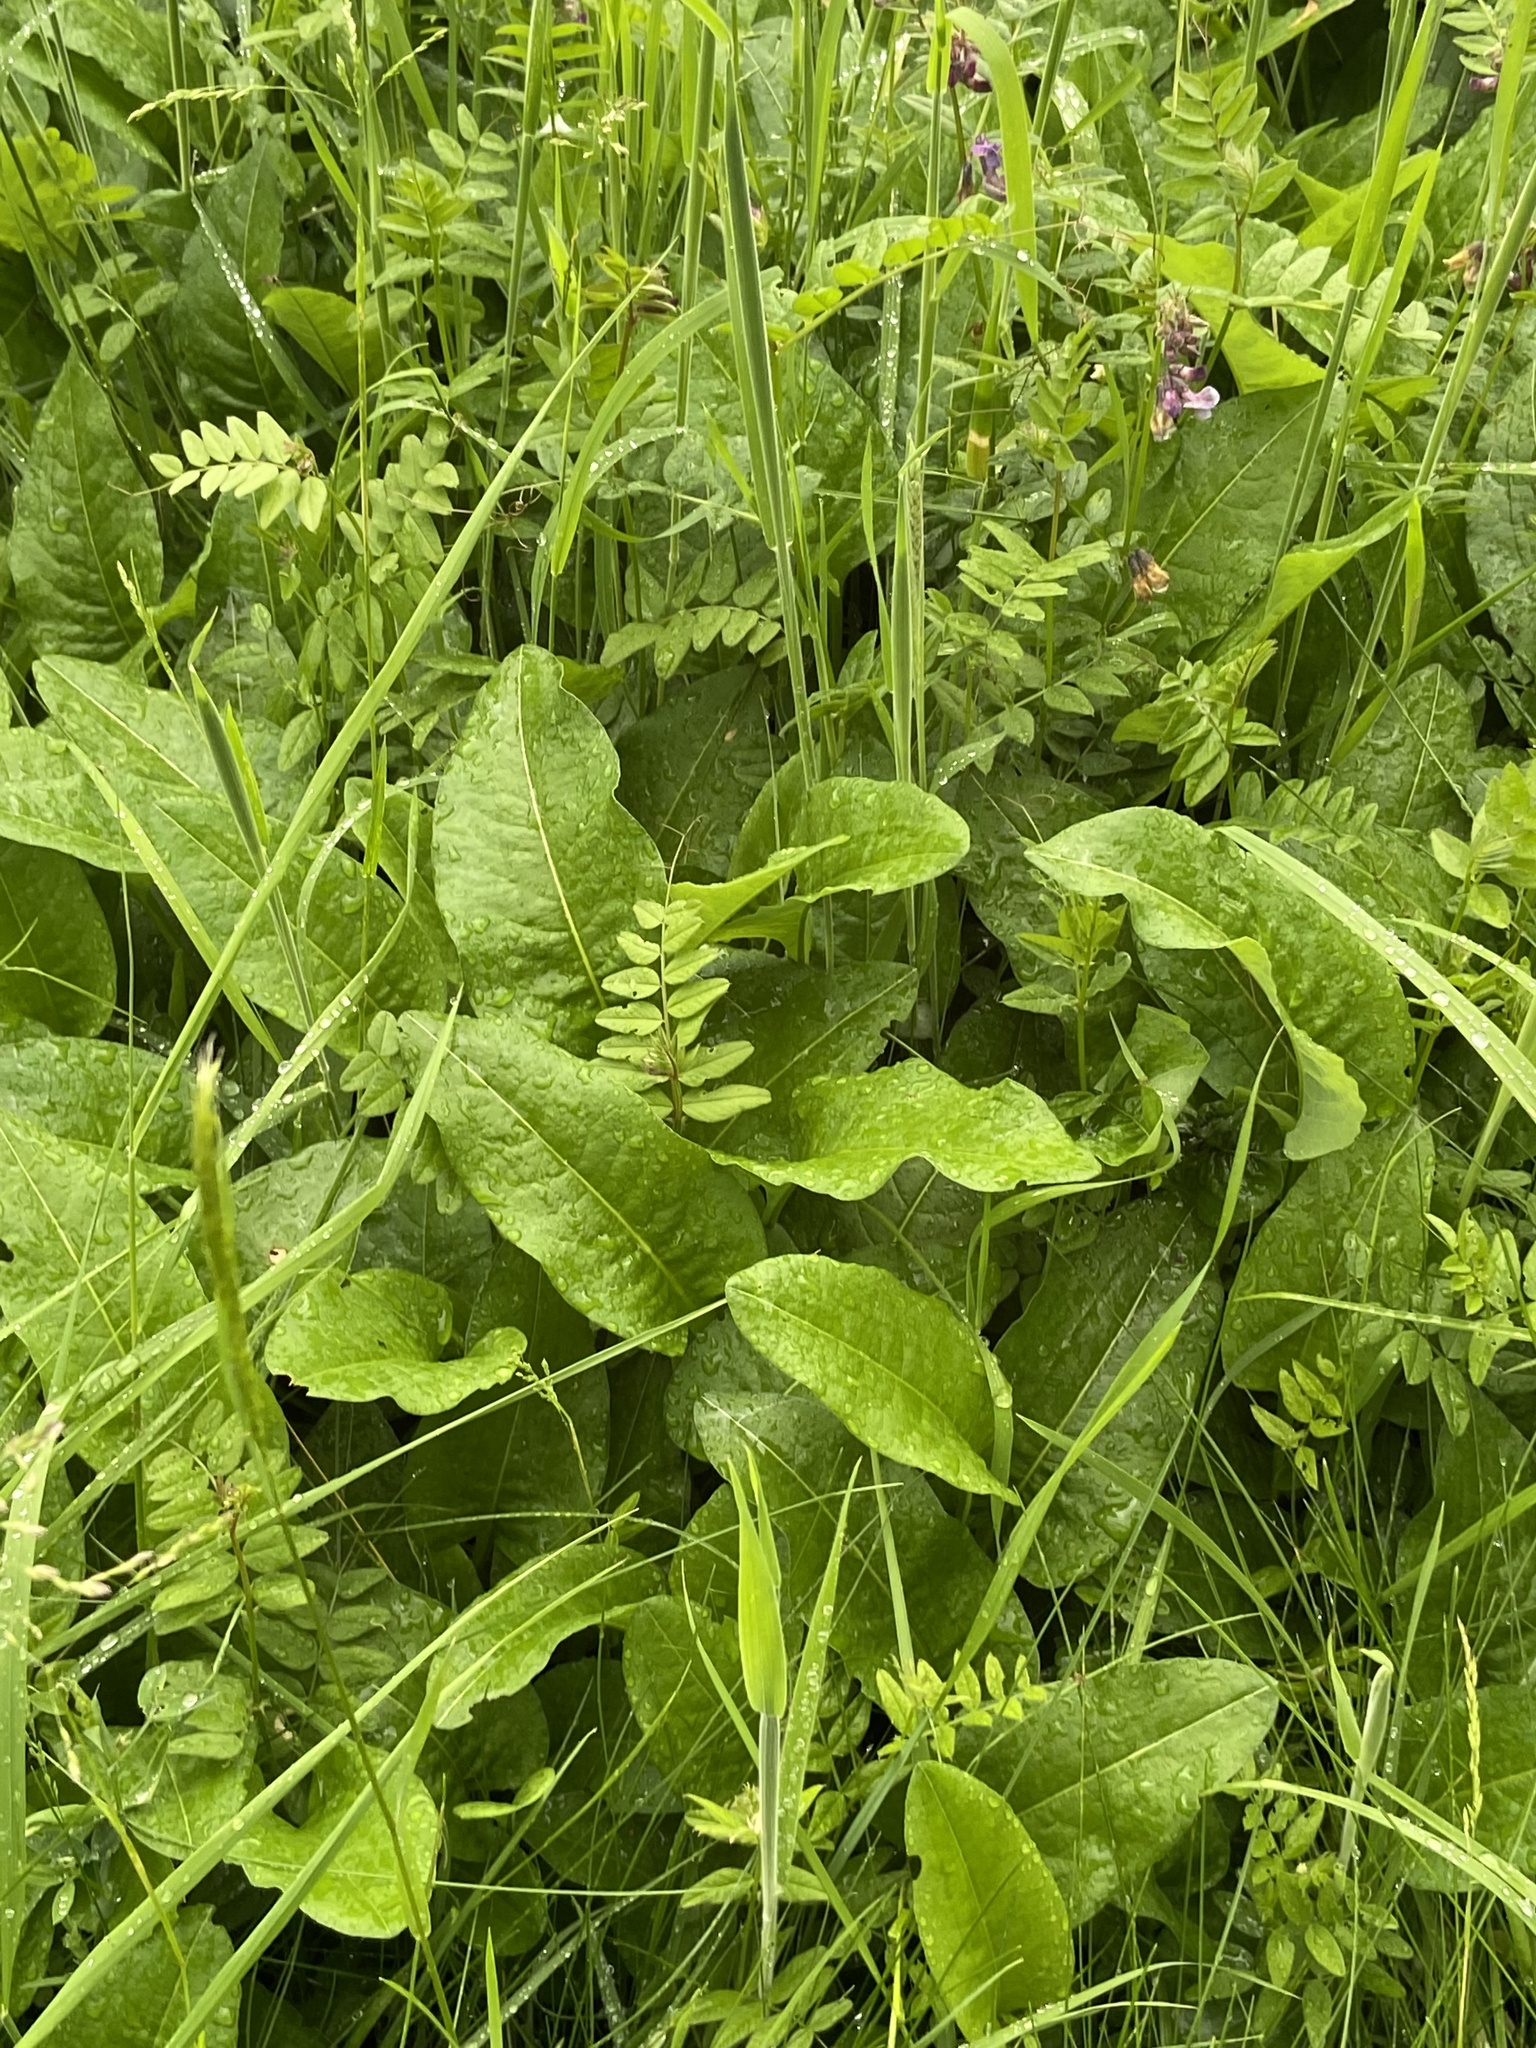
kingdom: Plantae
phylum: Tracheophyta
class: Magnoliopsida
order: Caryophyllales
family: Polygonaceae
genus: Rumex
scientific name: Rumex obtusifolius
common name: Bitter dock
